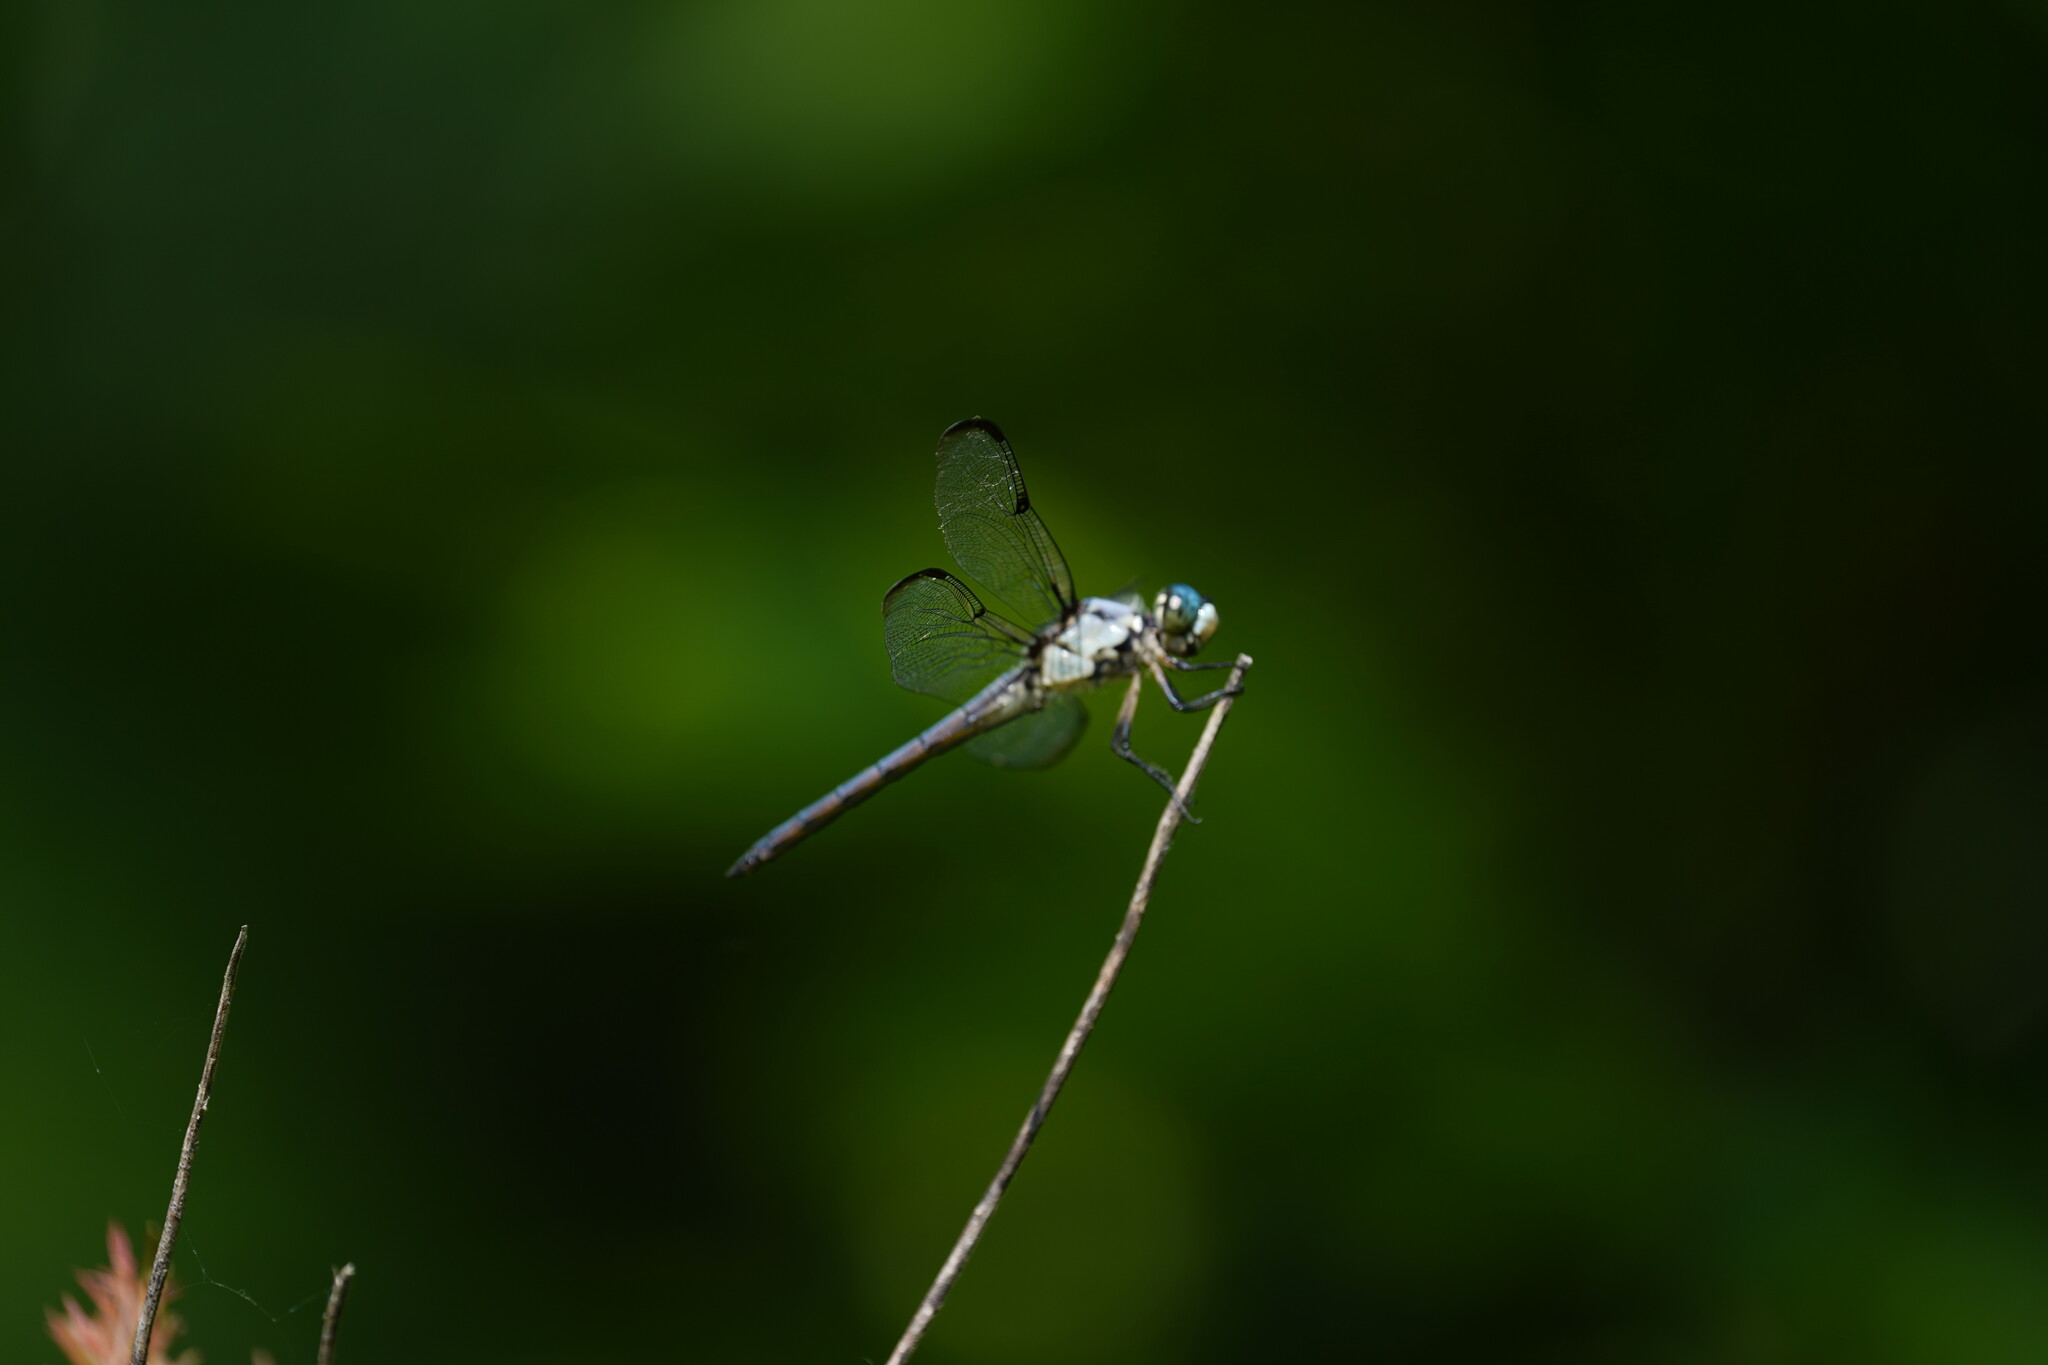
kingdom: Animalia
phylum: Arthropoda
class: Insecta
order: Odonata
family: Libellulidae
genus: Libellula
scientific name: Libellula vibrans
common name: Great blue skimmer
